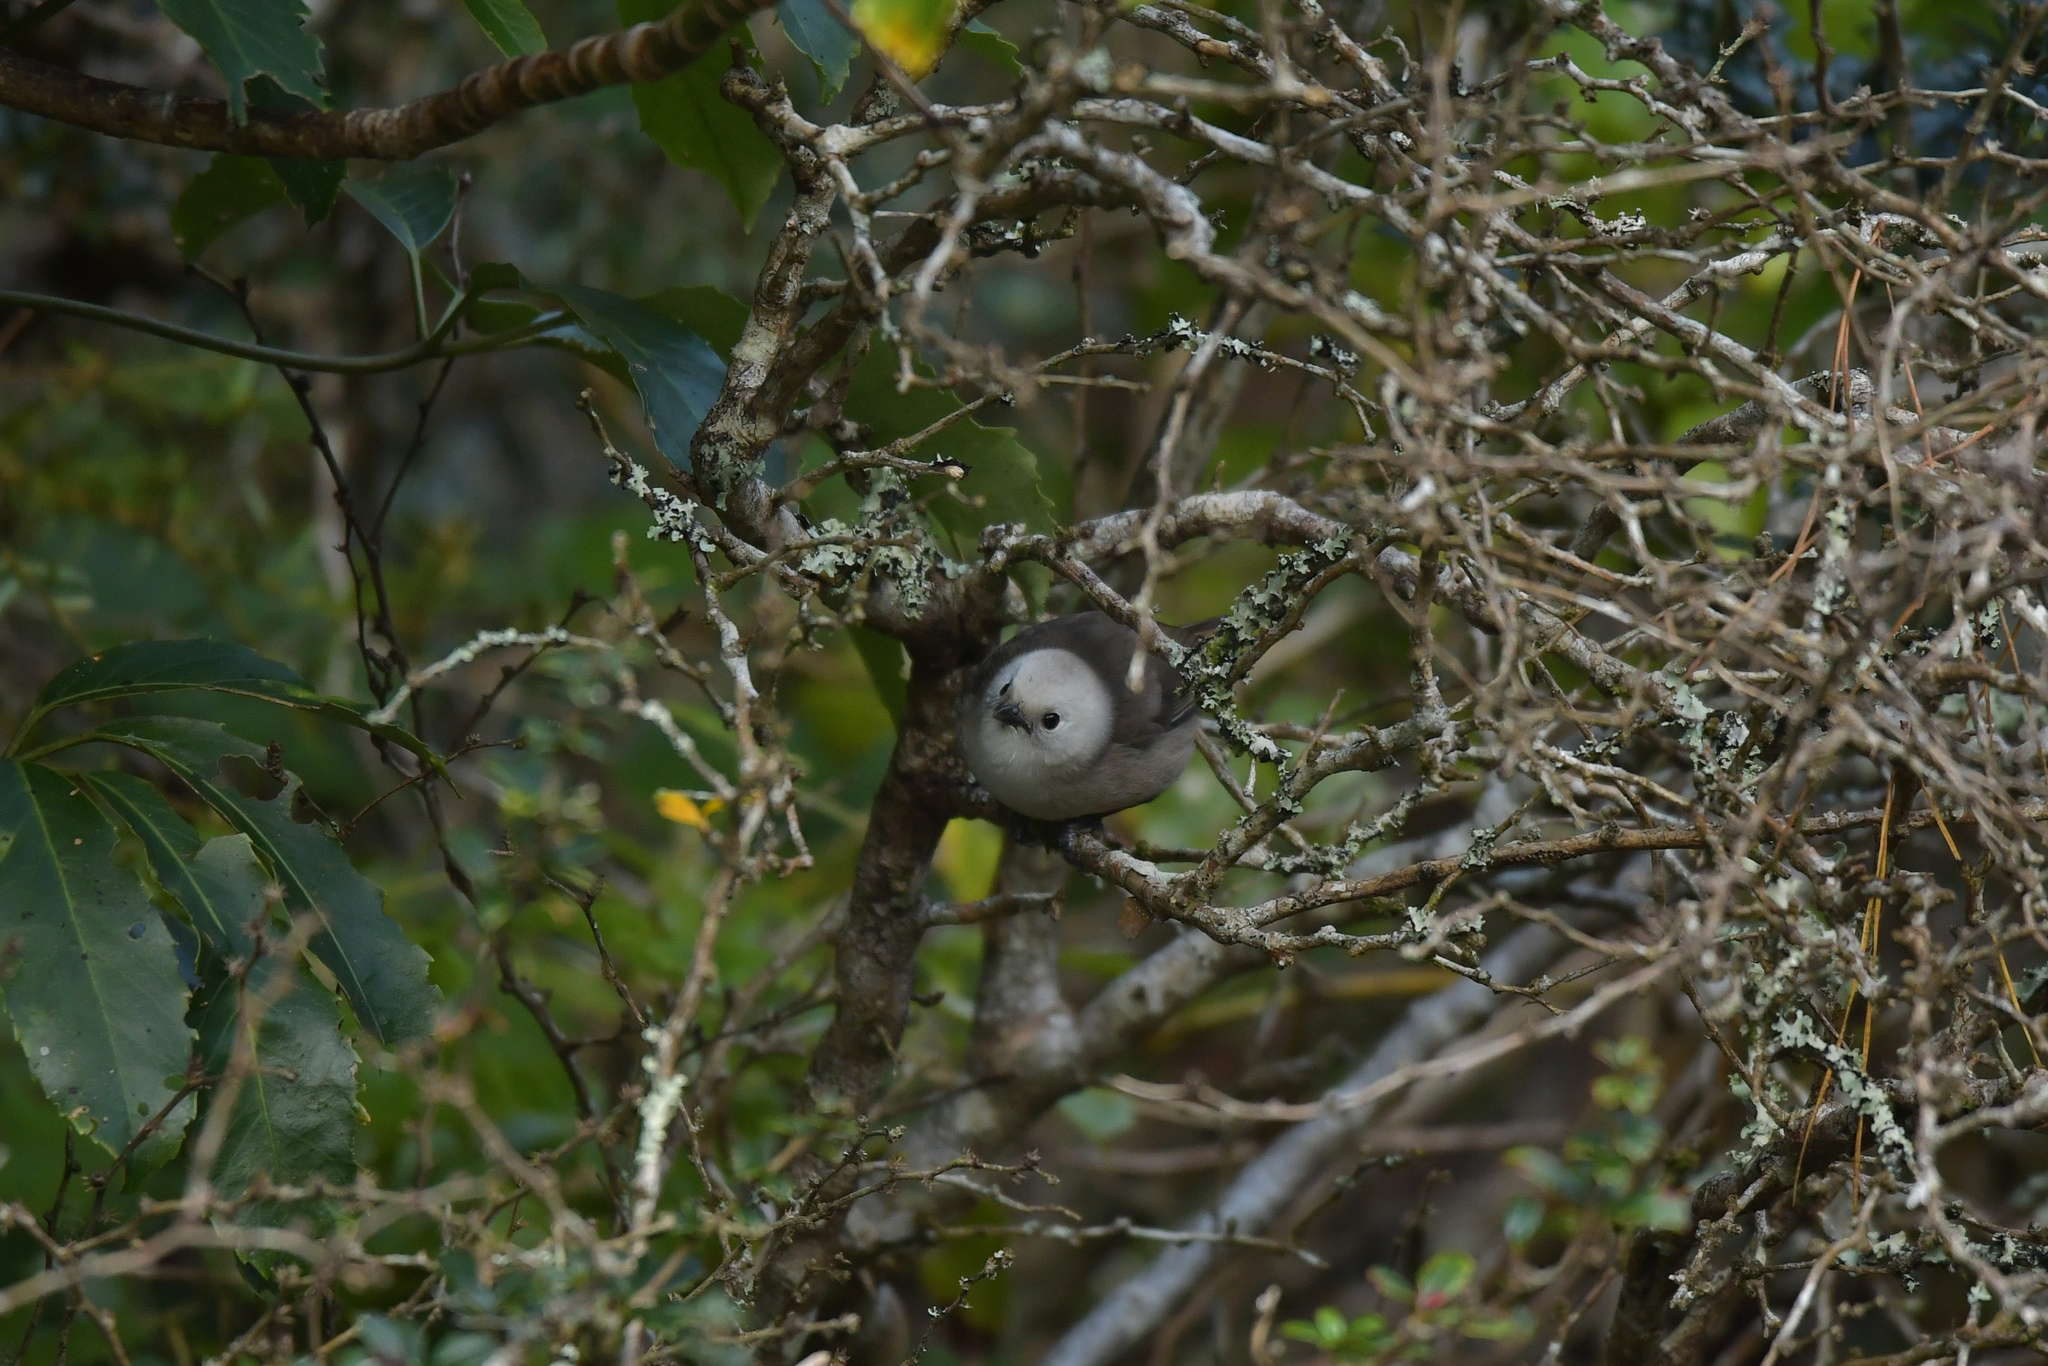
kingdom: Animalia
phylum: Chordata
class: Aves
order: Passeriformes
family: Acanthizidae
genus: Mohoua
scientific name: Mohoua albicilla
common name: Whitehead
